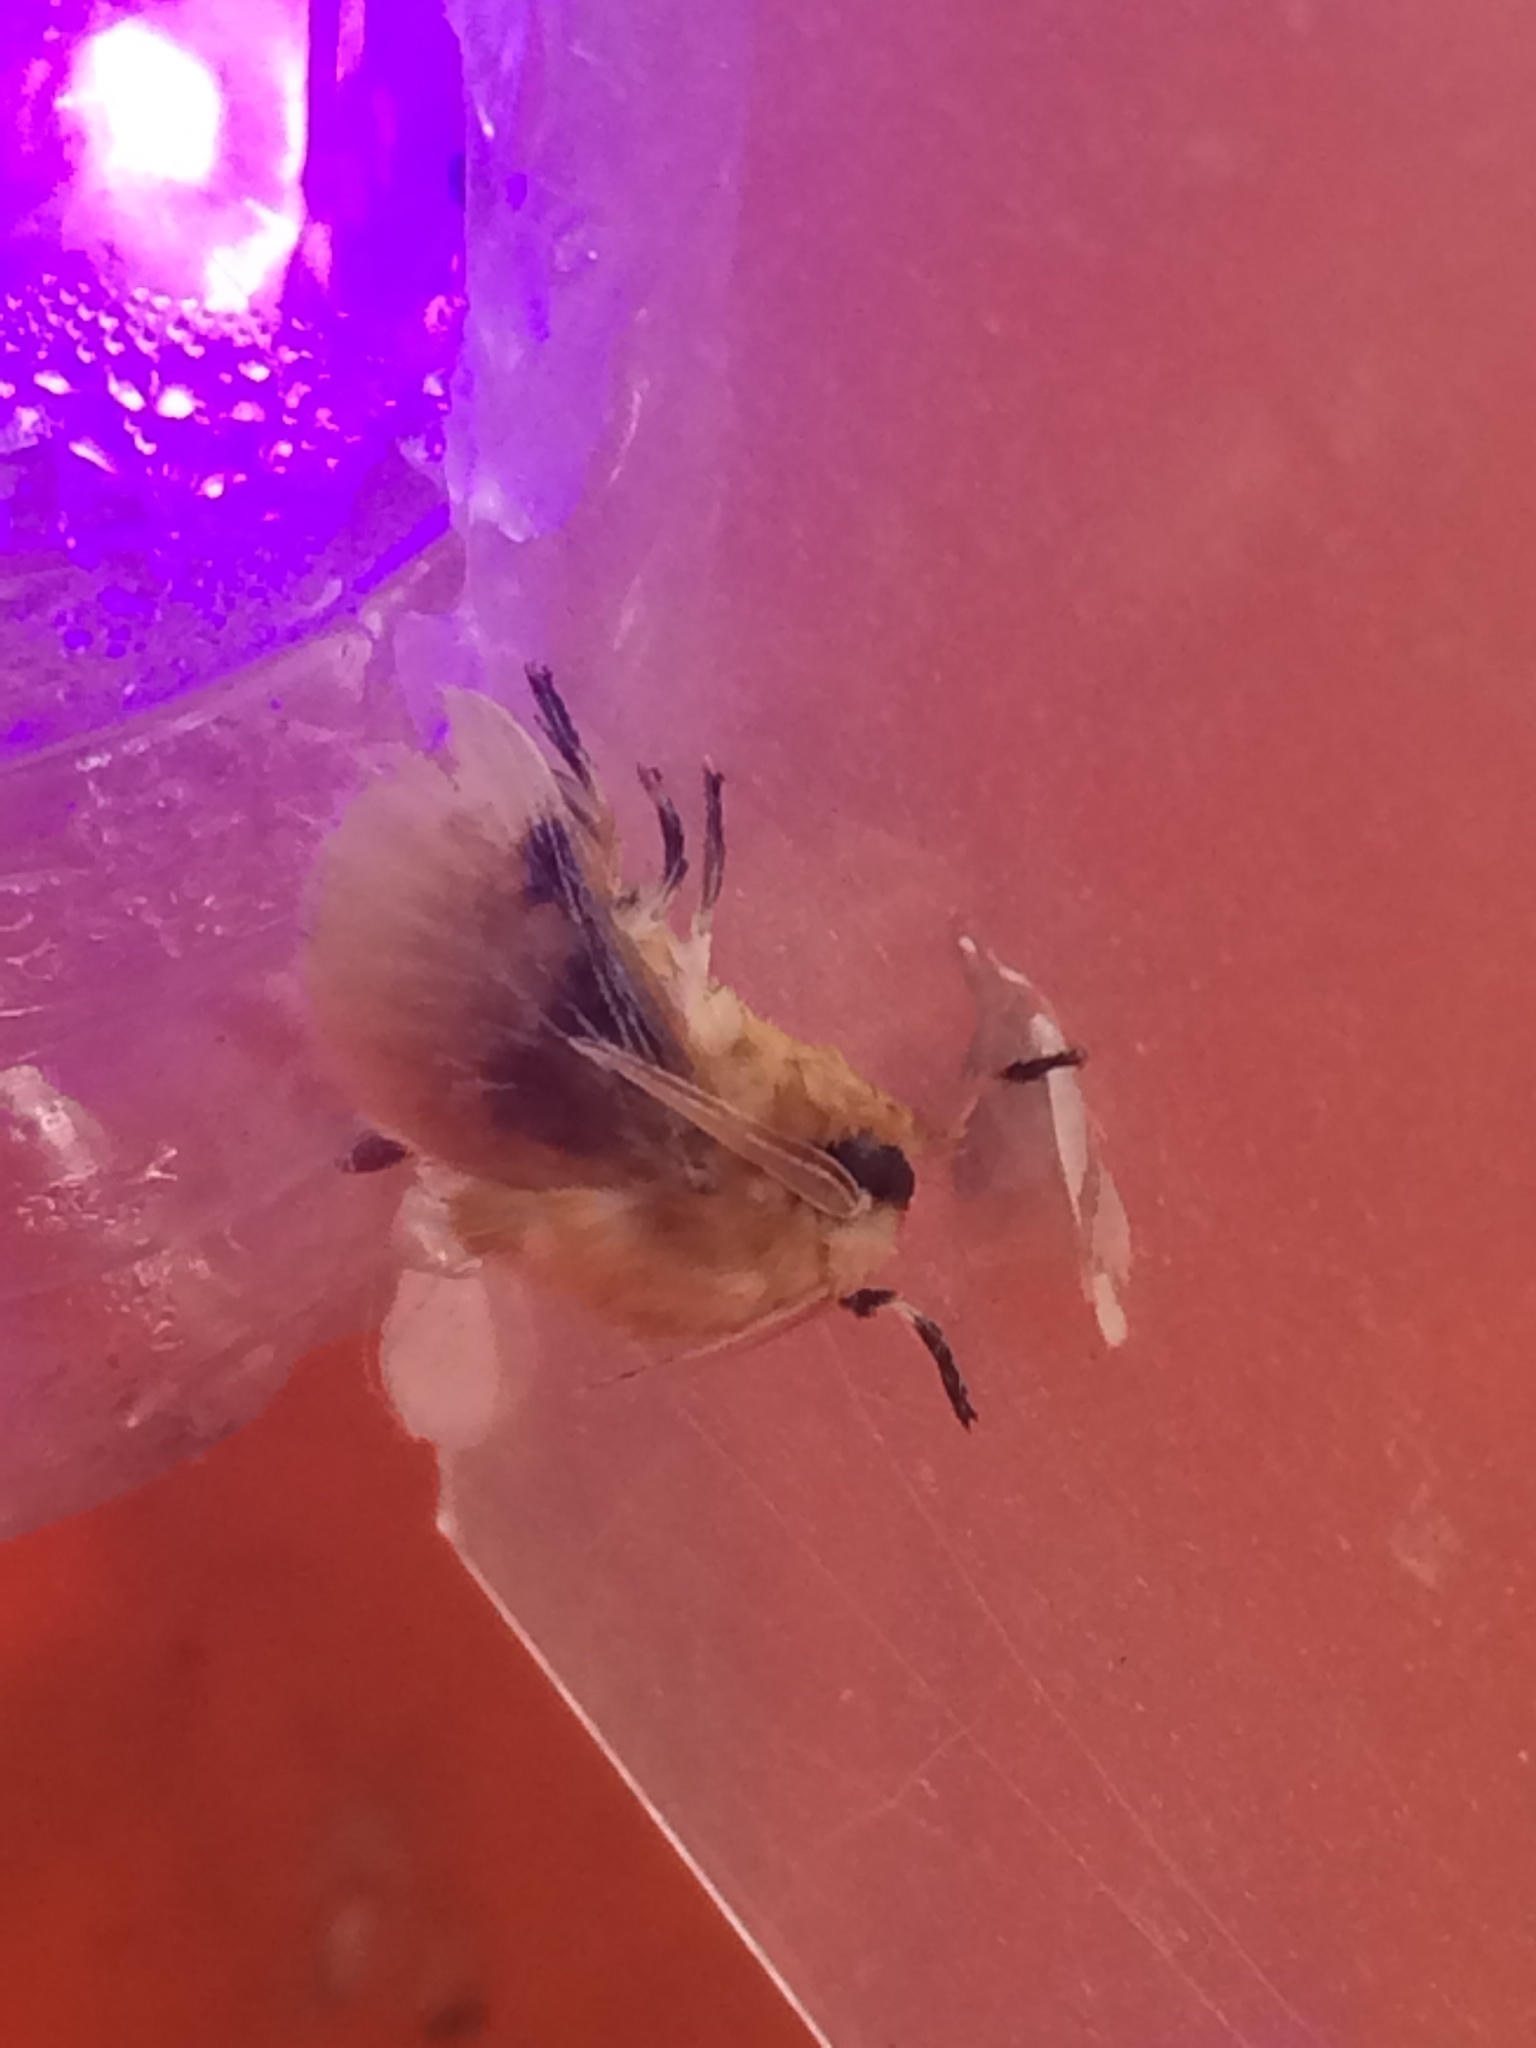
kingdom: Animalia
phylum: Arthropoda
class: Insecta
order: Lepidoptera
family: Megalopygidae
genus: Megalopyge
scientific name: Megalopyge opercularis
